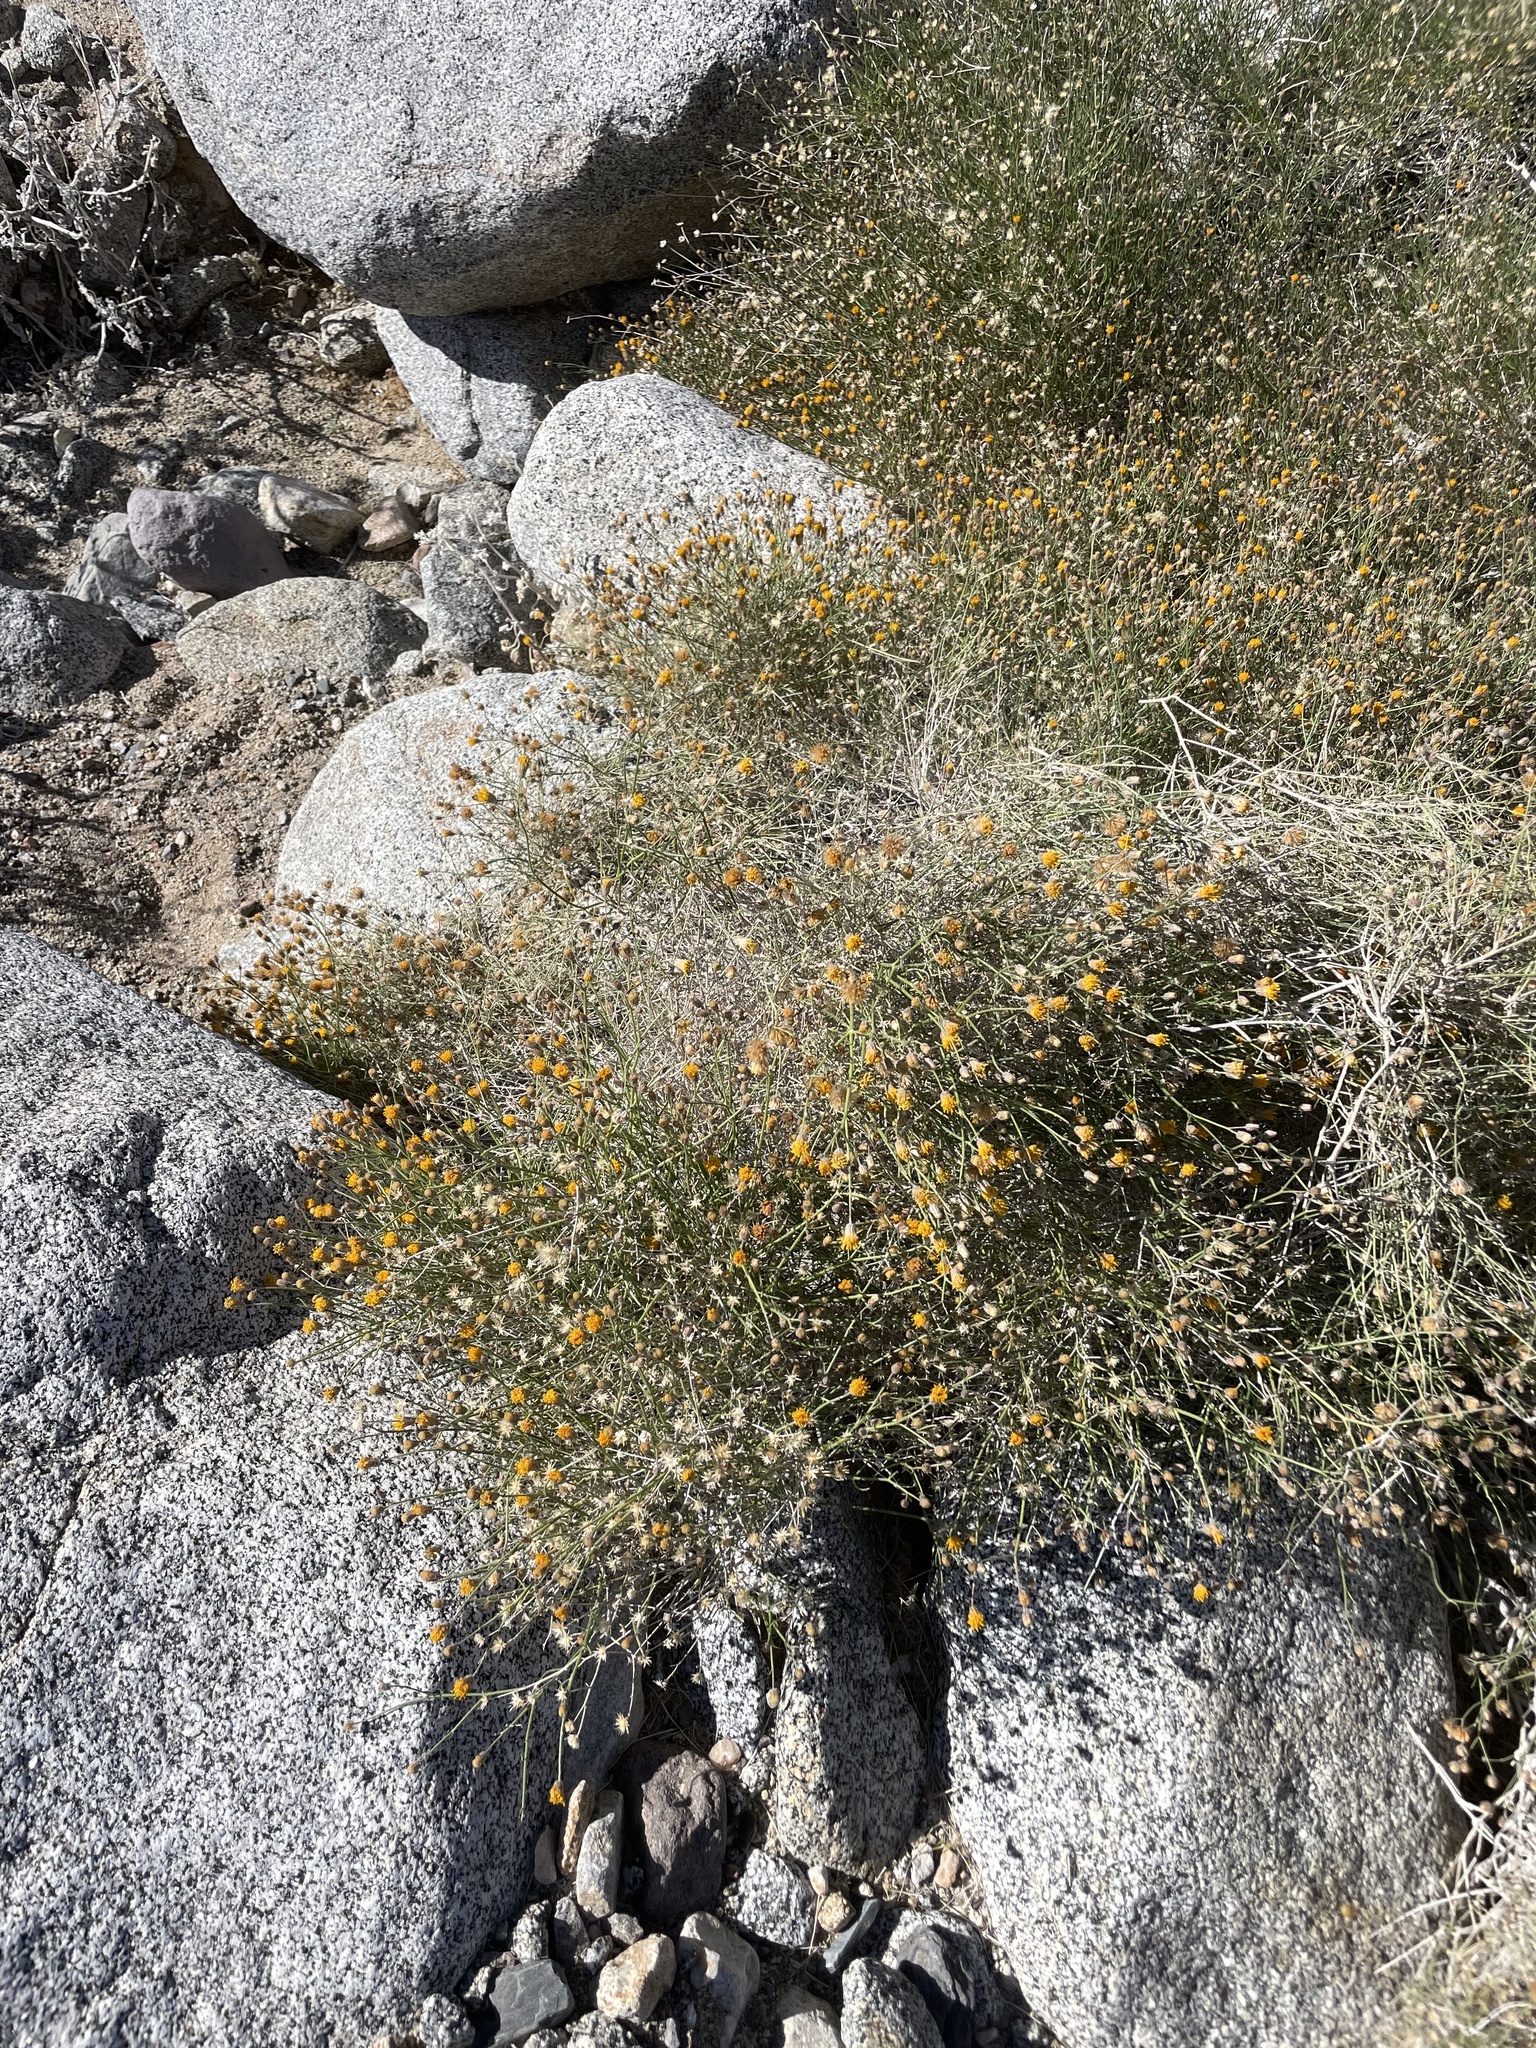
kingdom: Plantae
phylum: Tracheophyta
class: Magnoliopsida
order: Asterales
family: Asteraceae
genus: Bebbia
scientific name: Bebbia juncea
